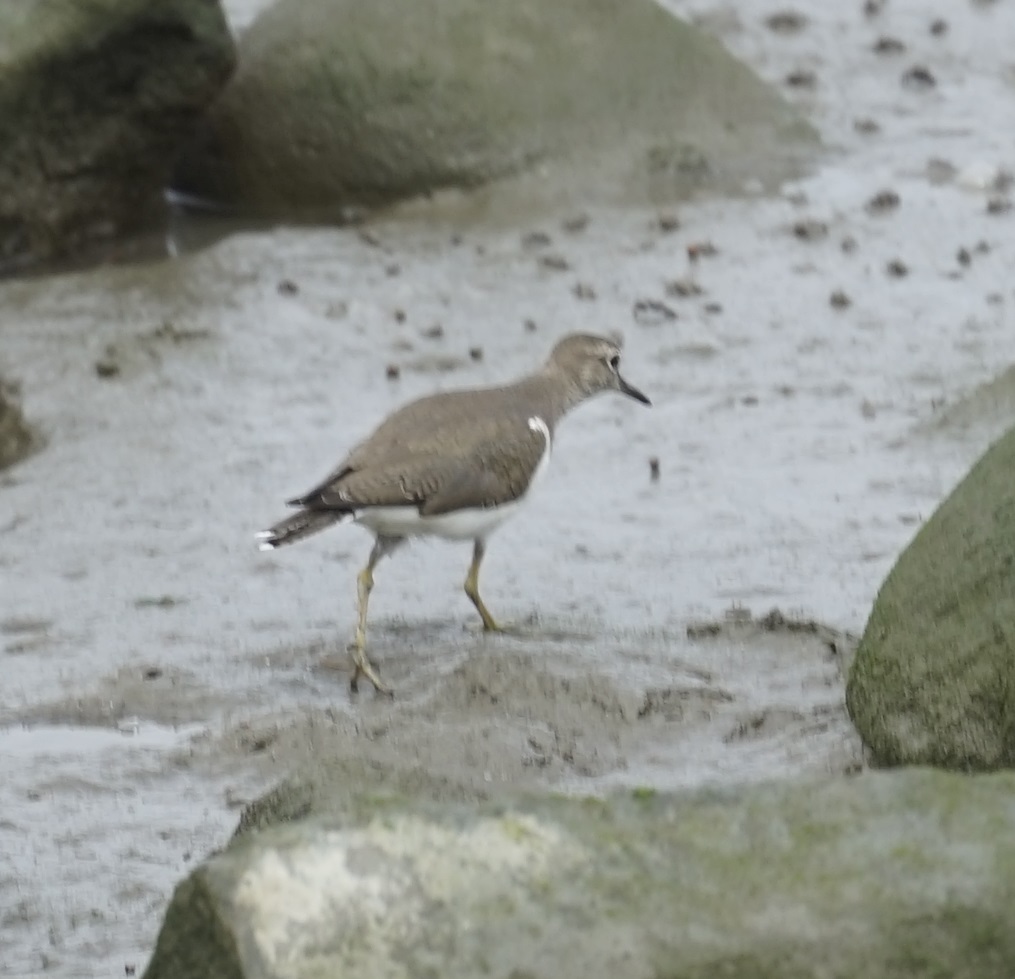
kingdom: Animalia
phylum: Chordata
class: Aves
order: Charadriiformes
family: Scolopacidae
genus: Actitis
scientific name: Actitis hypoleucos
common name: Common sandpiper
